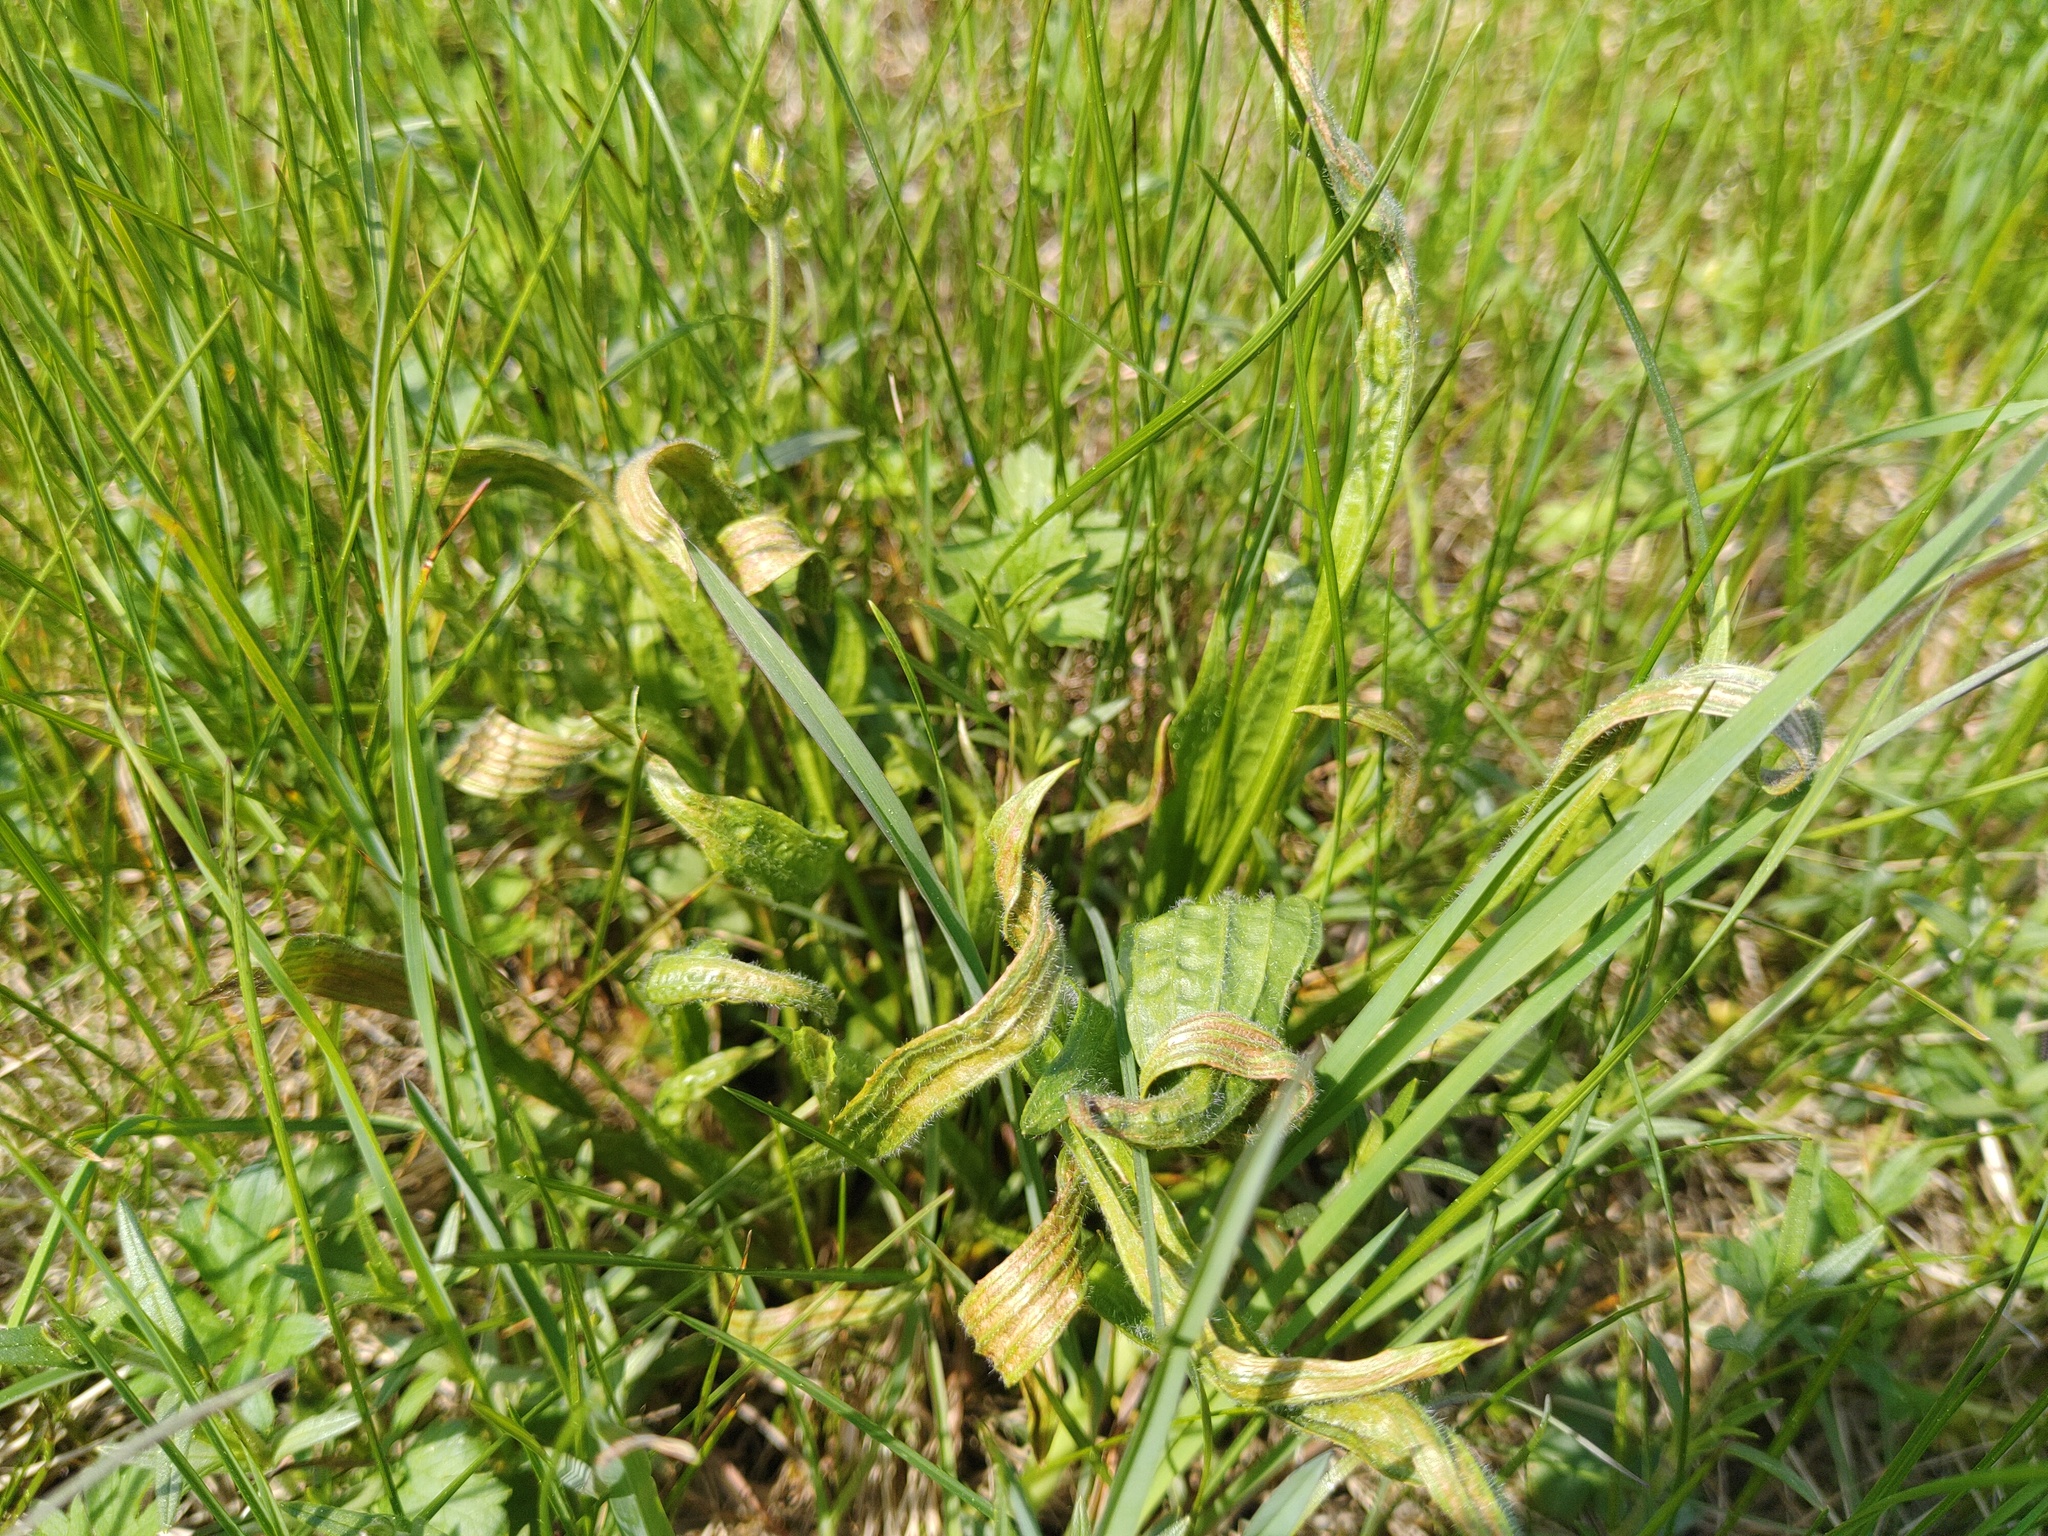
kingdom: Plantae
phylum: Tracheophyta
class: Magnoliopsida
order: Lamiales
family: Plantaginaceae
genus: Plantago
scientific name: Plantago lanceolata
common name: Ribwort plantain
